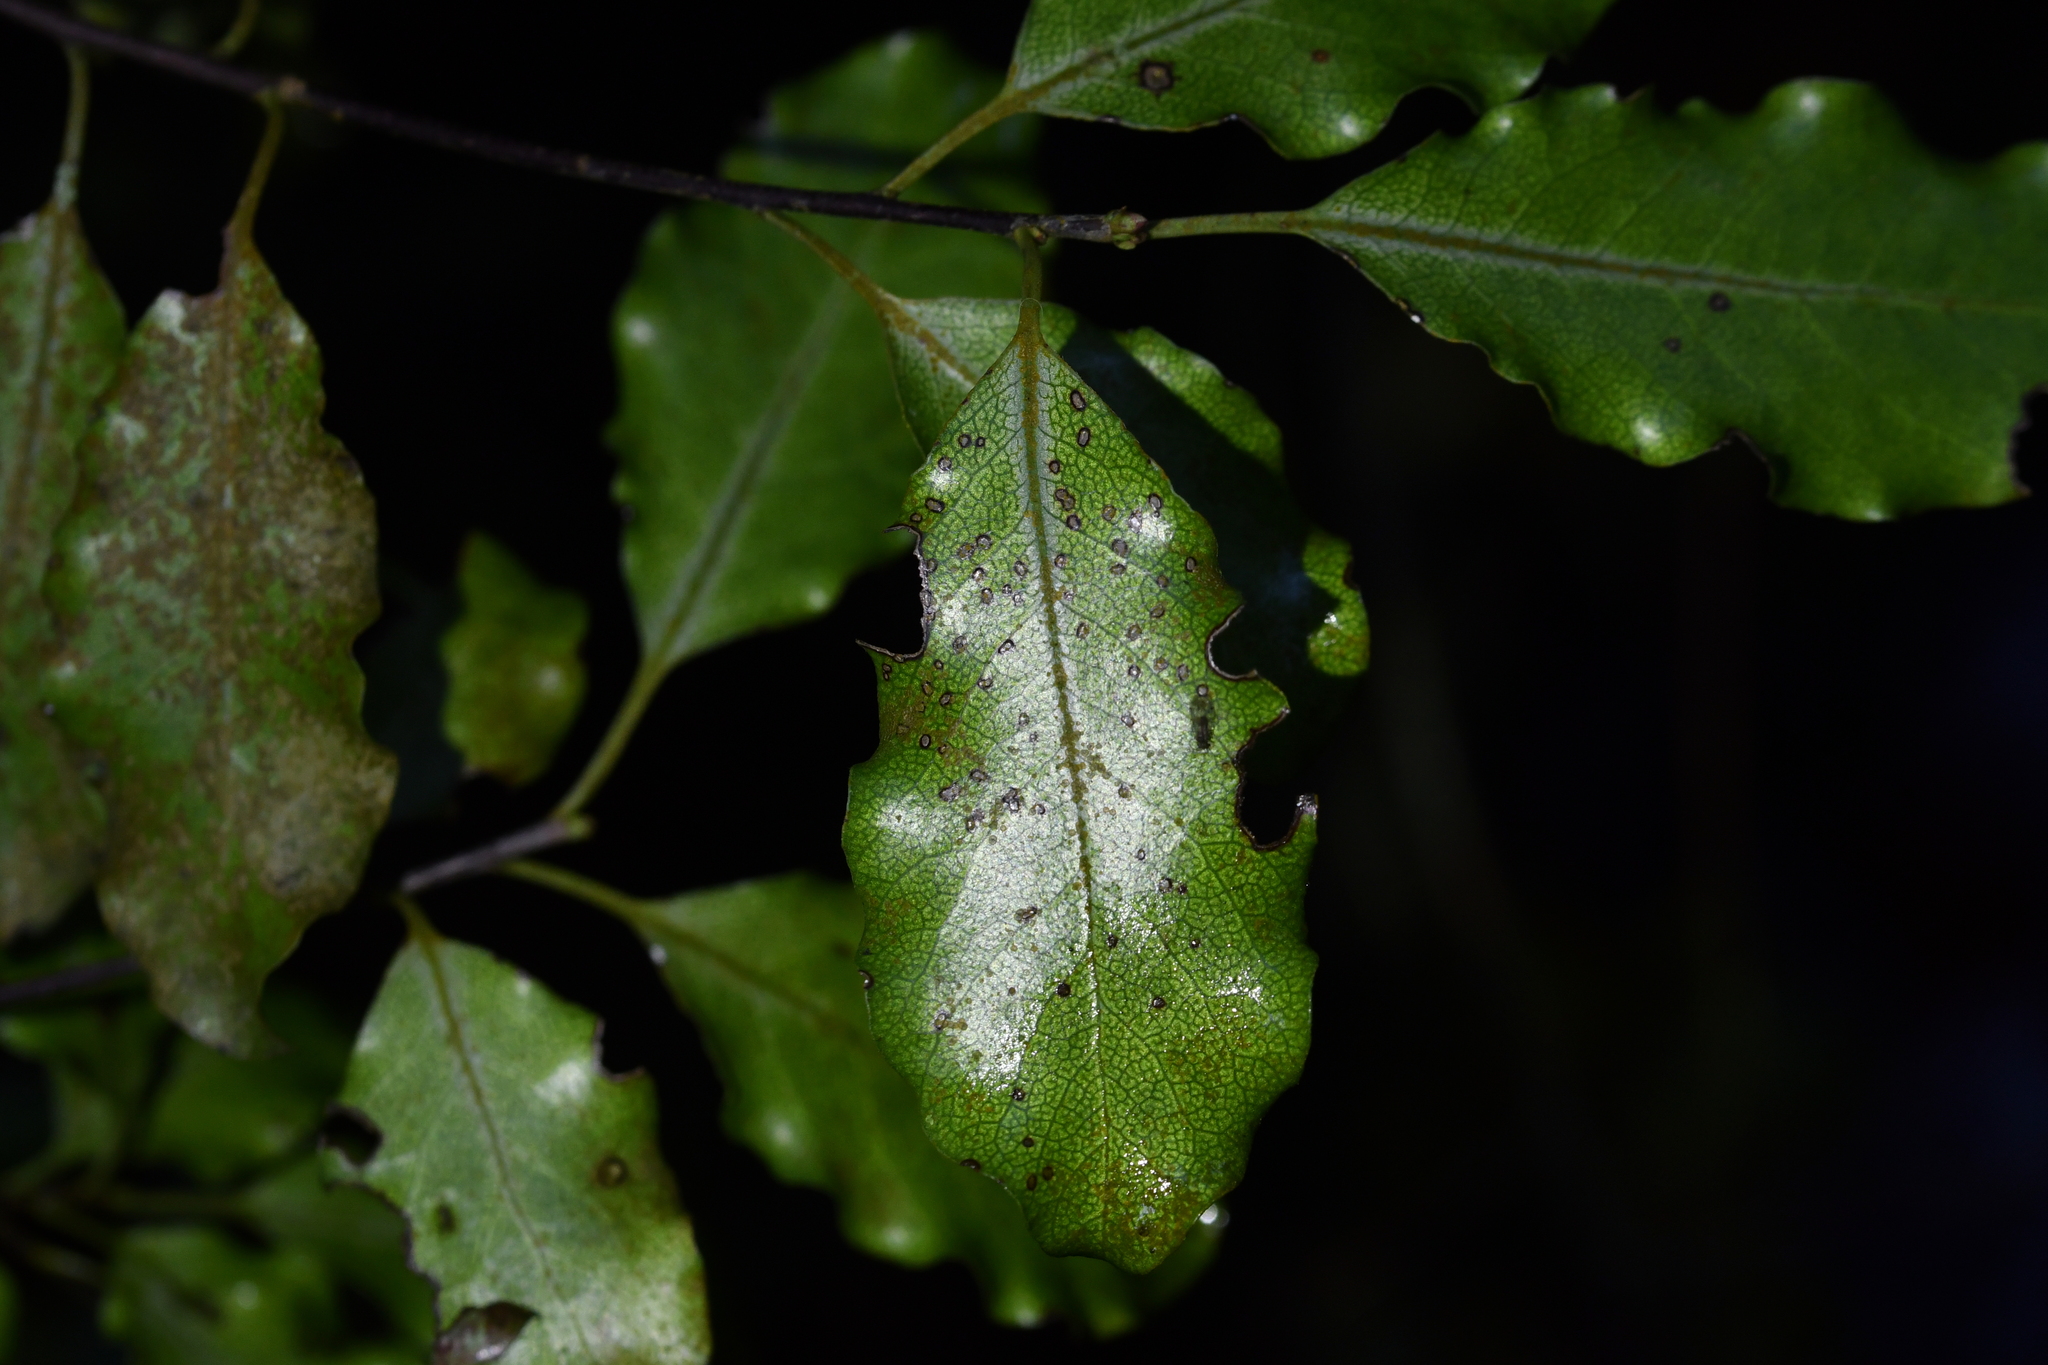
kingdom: Plantae
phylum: Tracheophyta
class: Magnoliopsida
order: Apiales
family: Pittosporaceae
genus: Pittosporum
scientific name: Pittosporum tenuifolium
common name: Kohuhu
